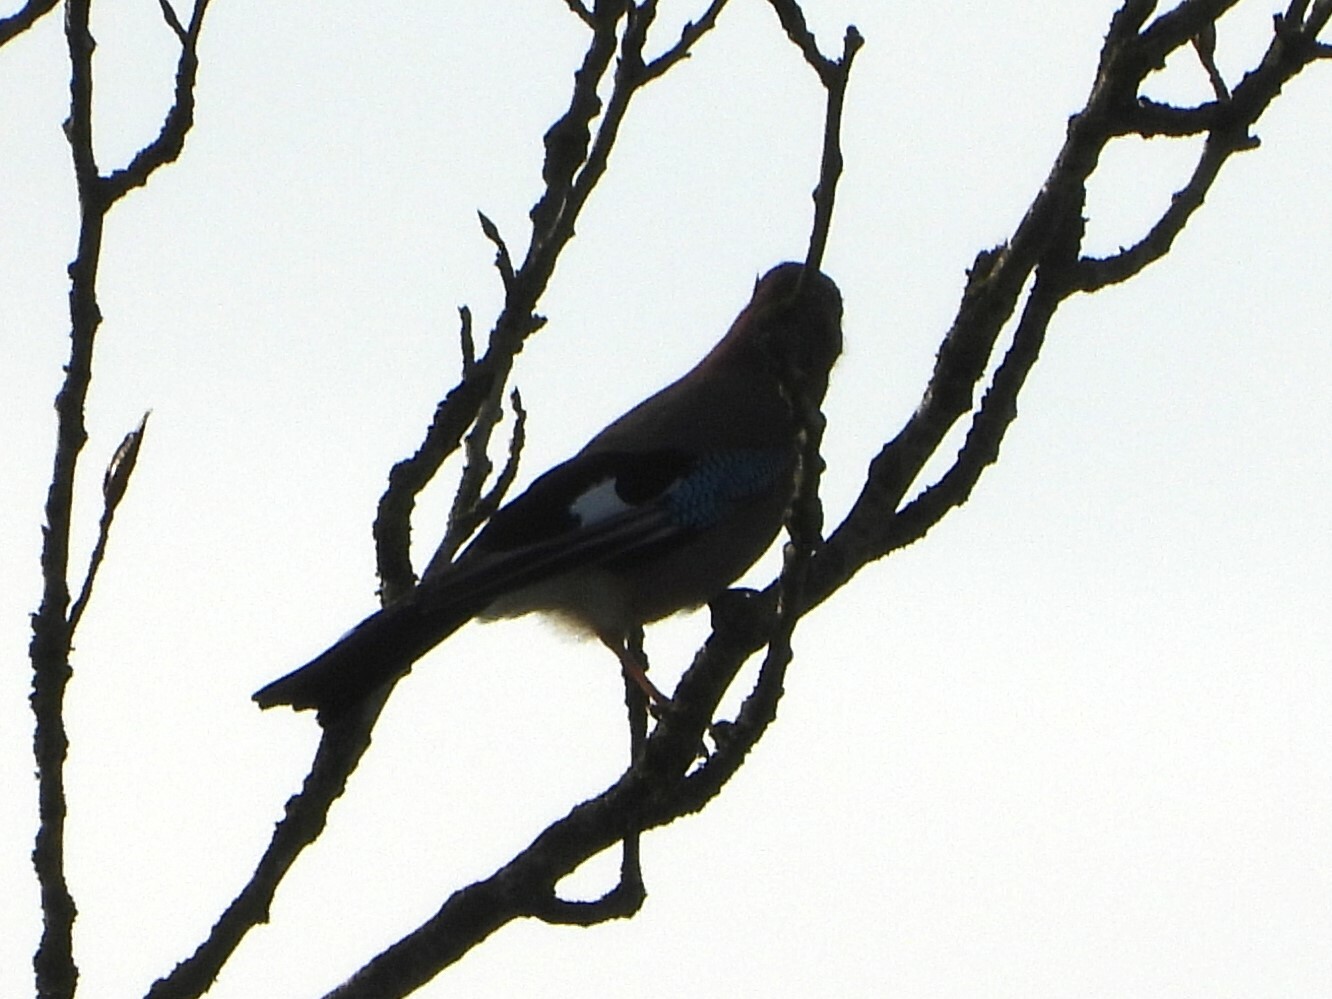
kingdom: Animalia
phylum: Chordata
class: Aves
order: Passeriformes
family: Corvidae
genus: Garrulus
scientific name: Garrulus glandarius
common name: Eurasian jay
